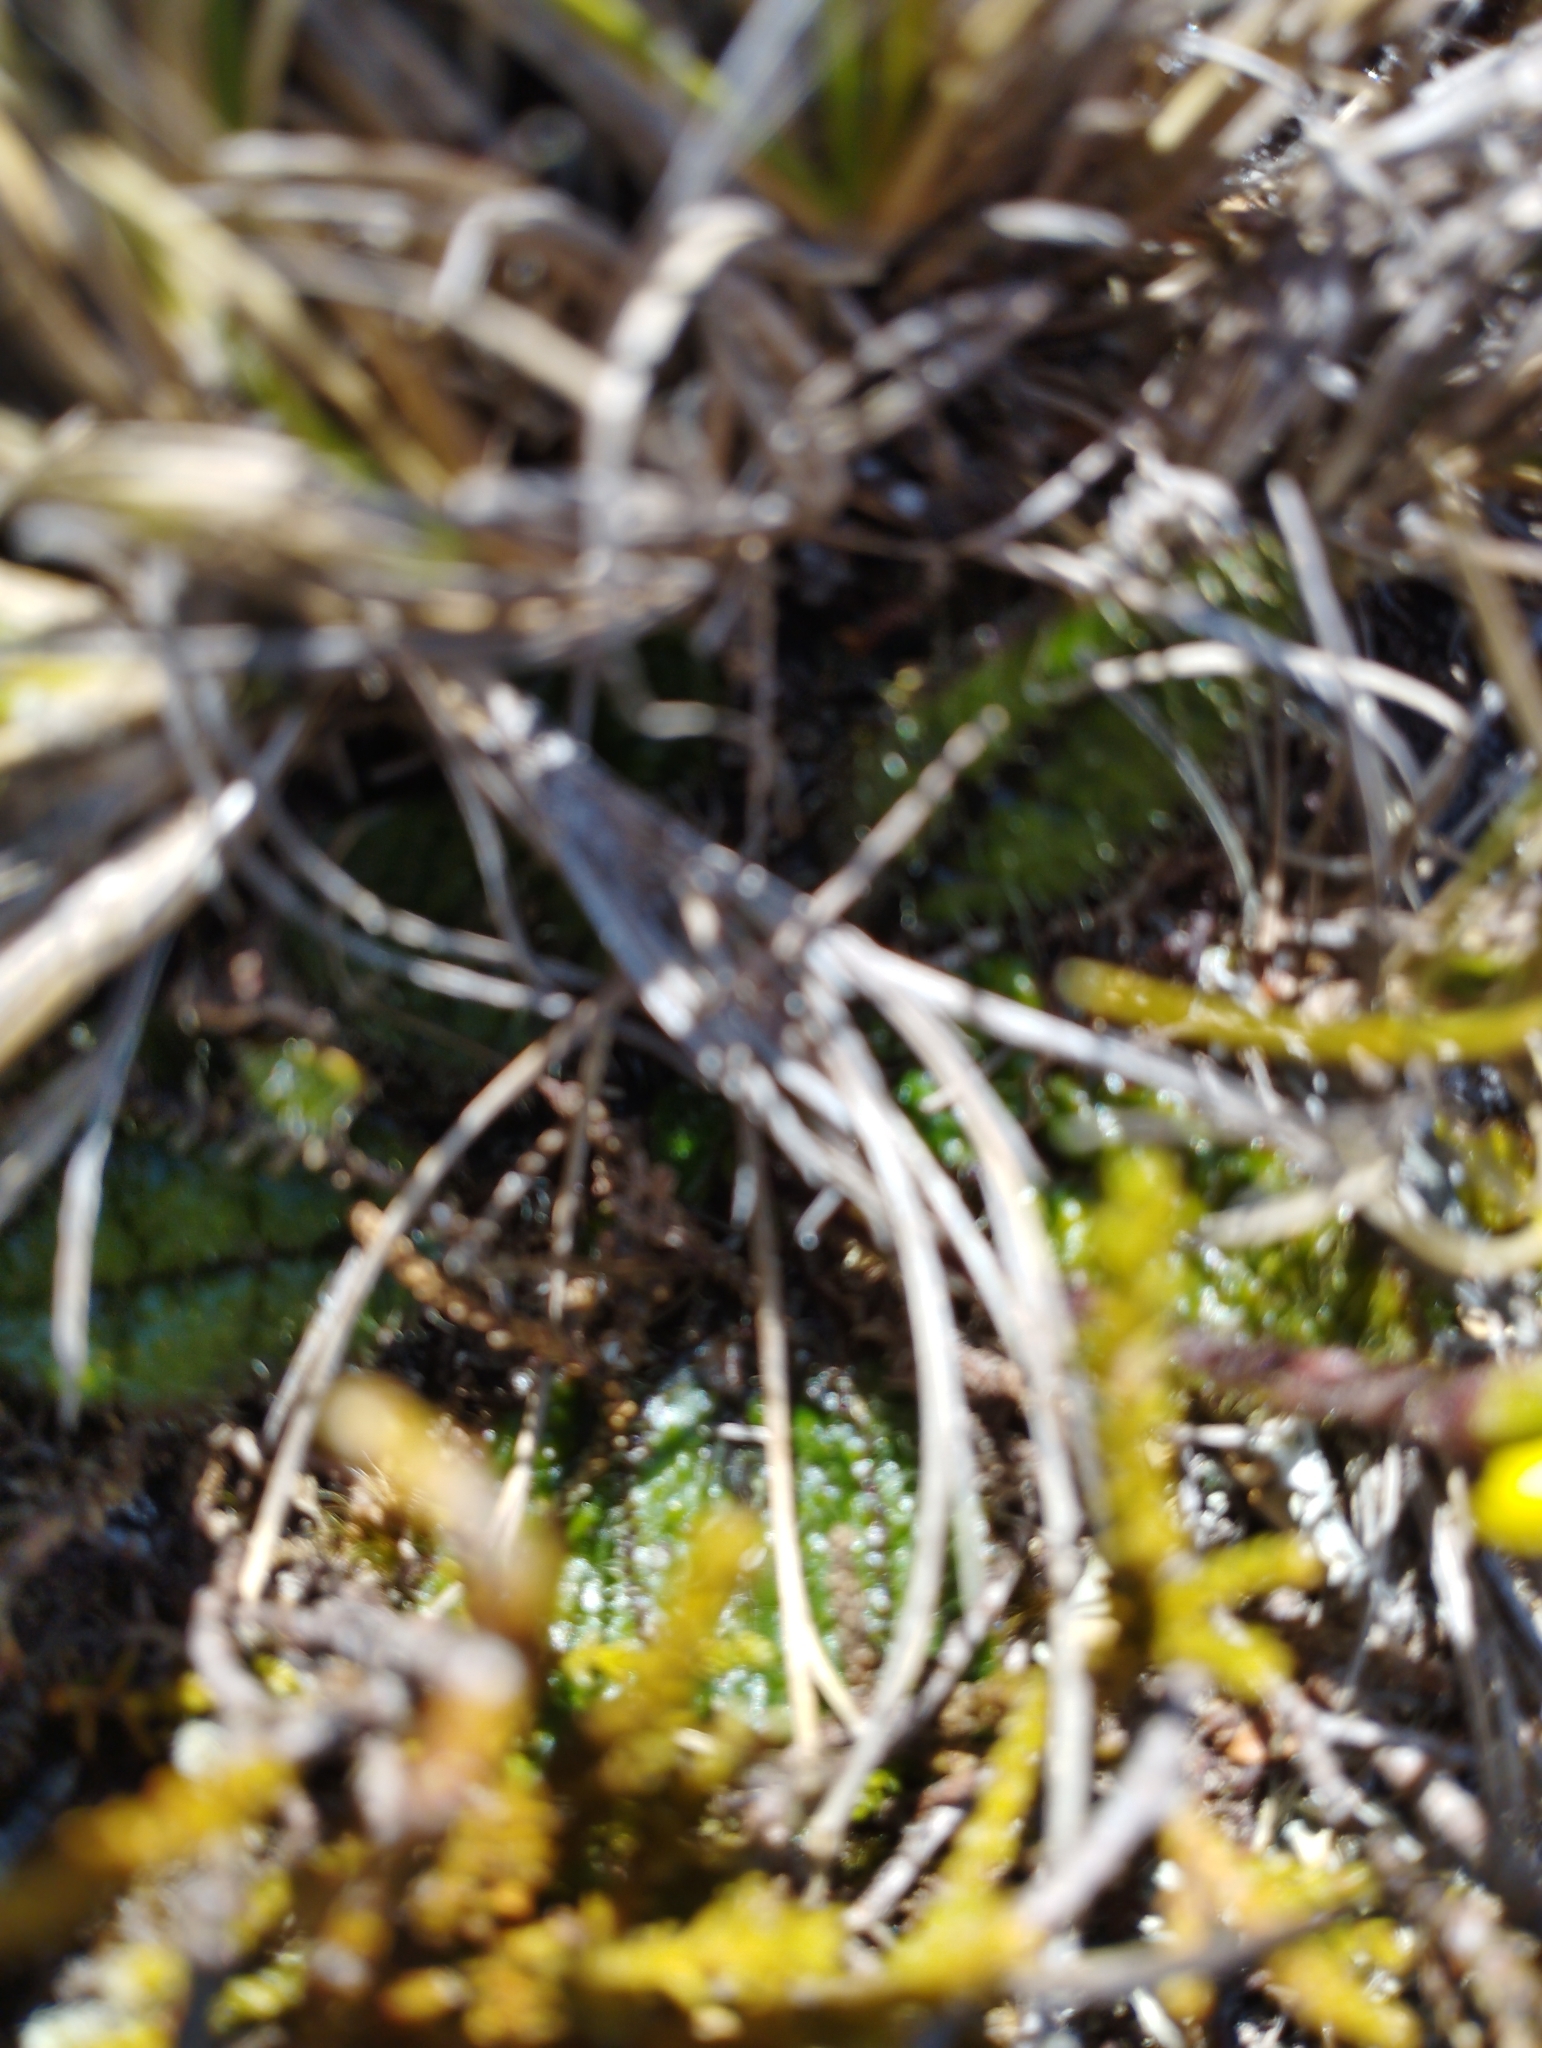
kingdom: Plantae
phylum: Tracheophyta
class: Magnoliopsida
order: Asterales
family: Asteraceae
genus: Brachyglottis
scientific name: Brachyglottis bellidioides
